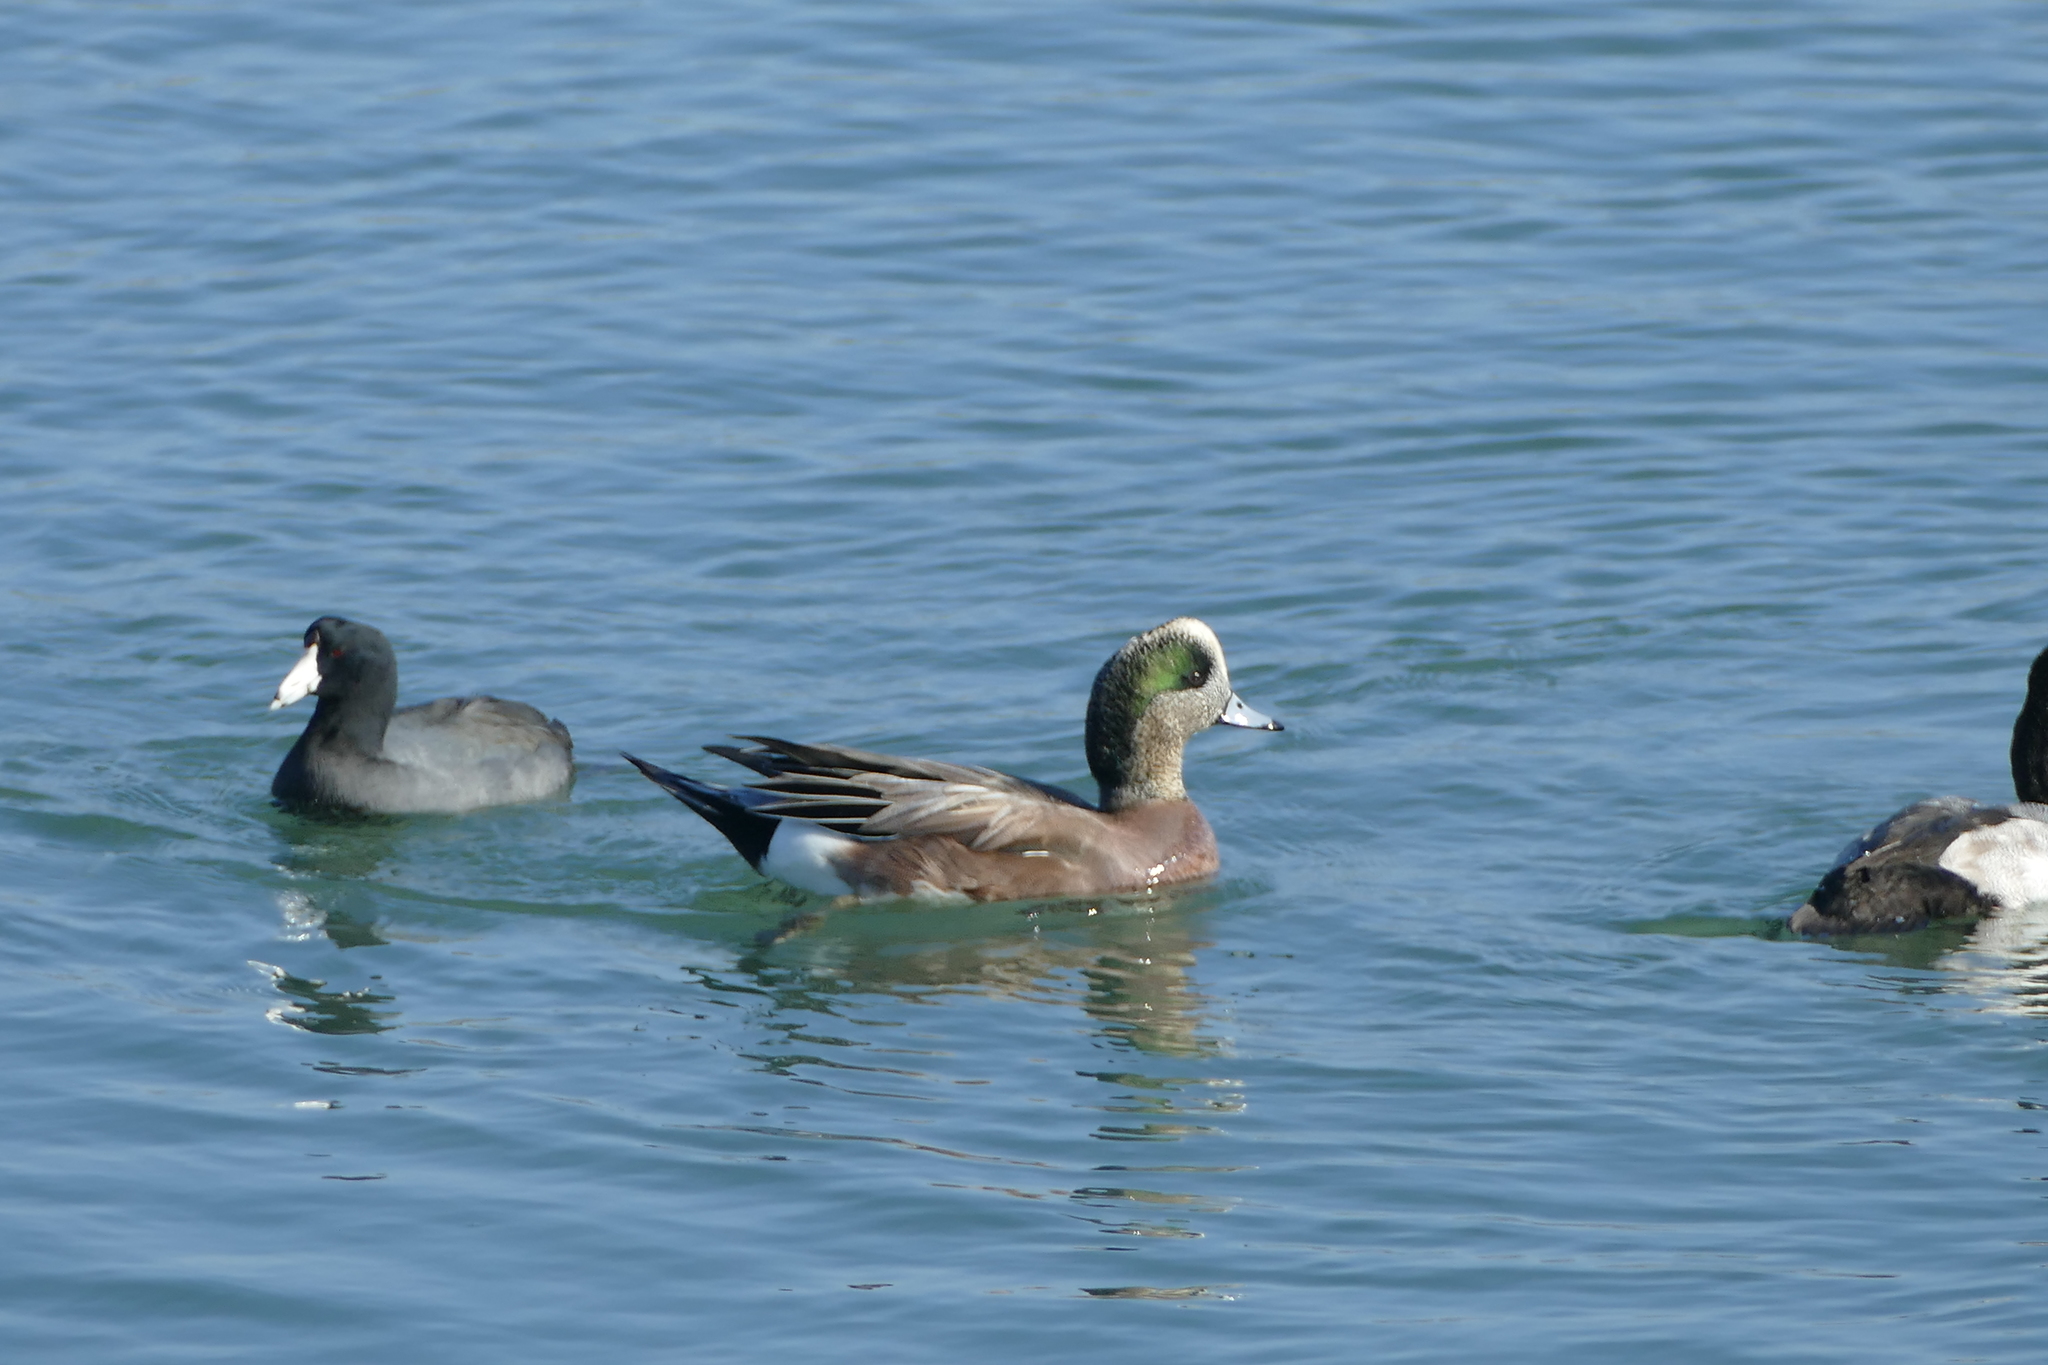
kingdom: Animalia
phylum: Chordata
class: Aves
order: Anseriformes
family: Anatidae
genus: Mareca
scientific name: Mareca americana
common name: American wigeon
